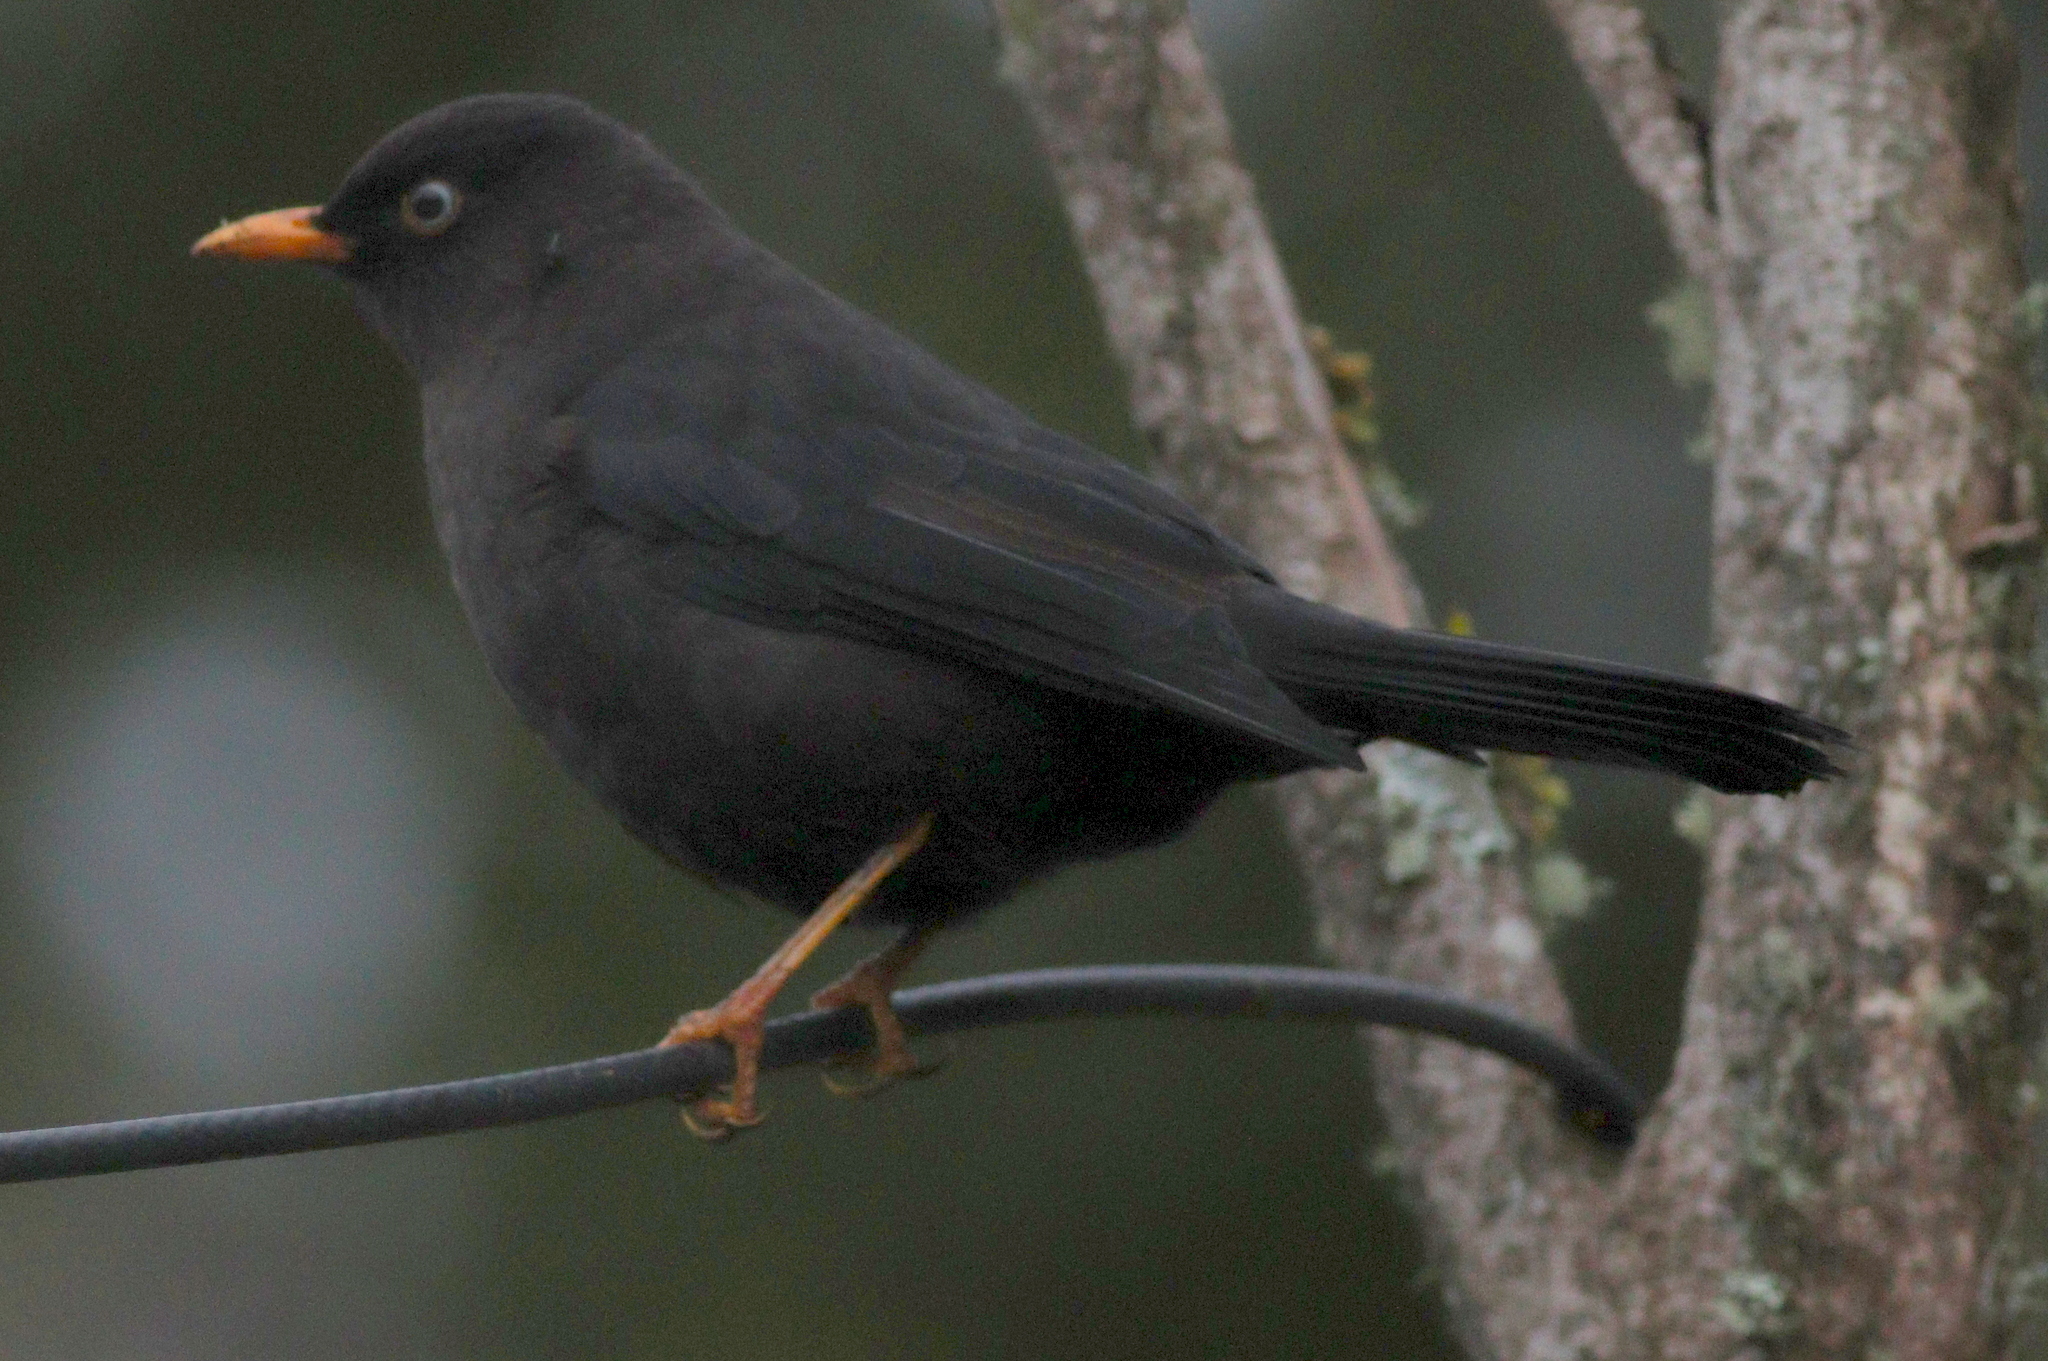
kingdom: Animalia
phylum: Chordata
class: Aves
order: Passeriformes
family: Turdidae
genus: Turdus
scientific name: Turdus nigrescens
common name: Sooty thrush
